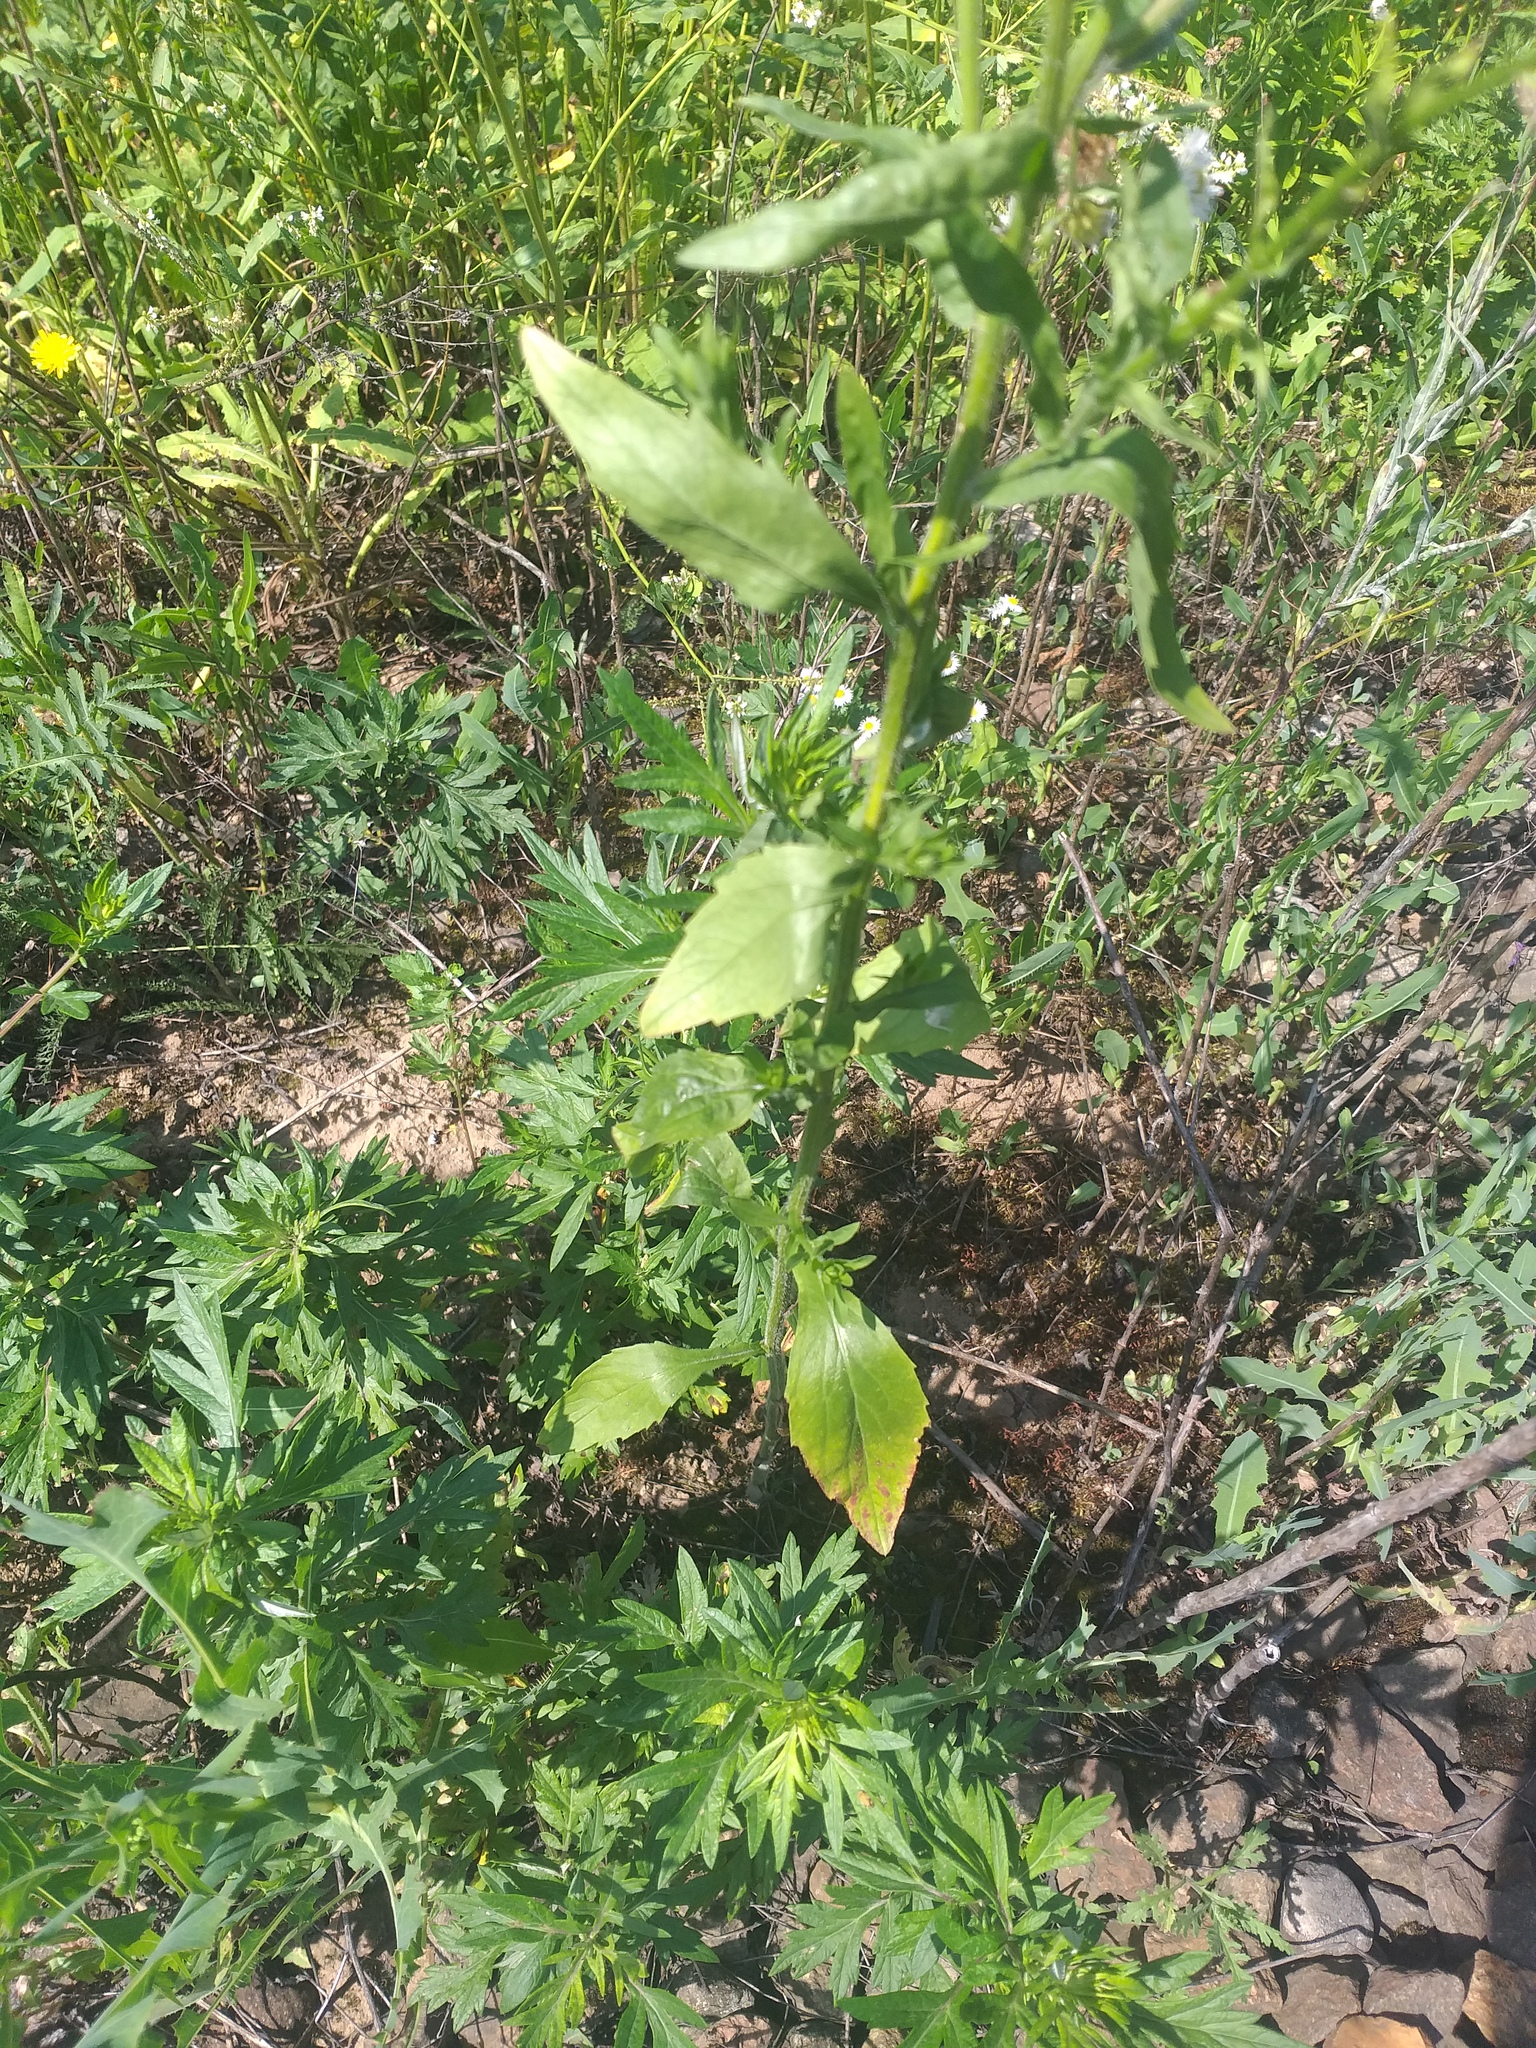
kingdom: Plantae
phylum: Tracheophyta
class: Magnoliopsida
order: Asterales
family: Asteraceae
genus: Erigeron
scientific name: Erigeron annuus
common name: Tall fleabane
